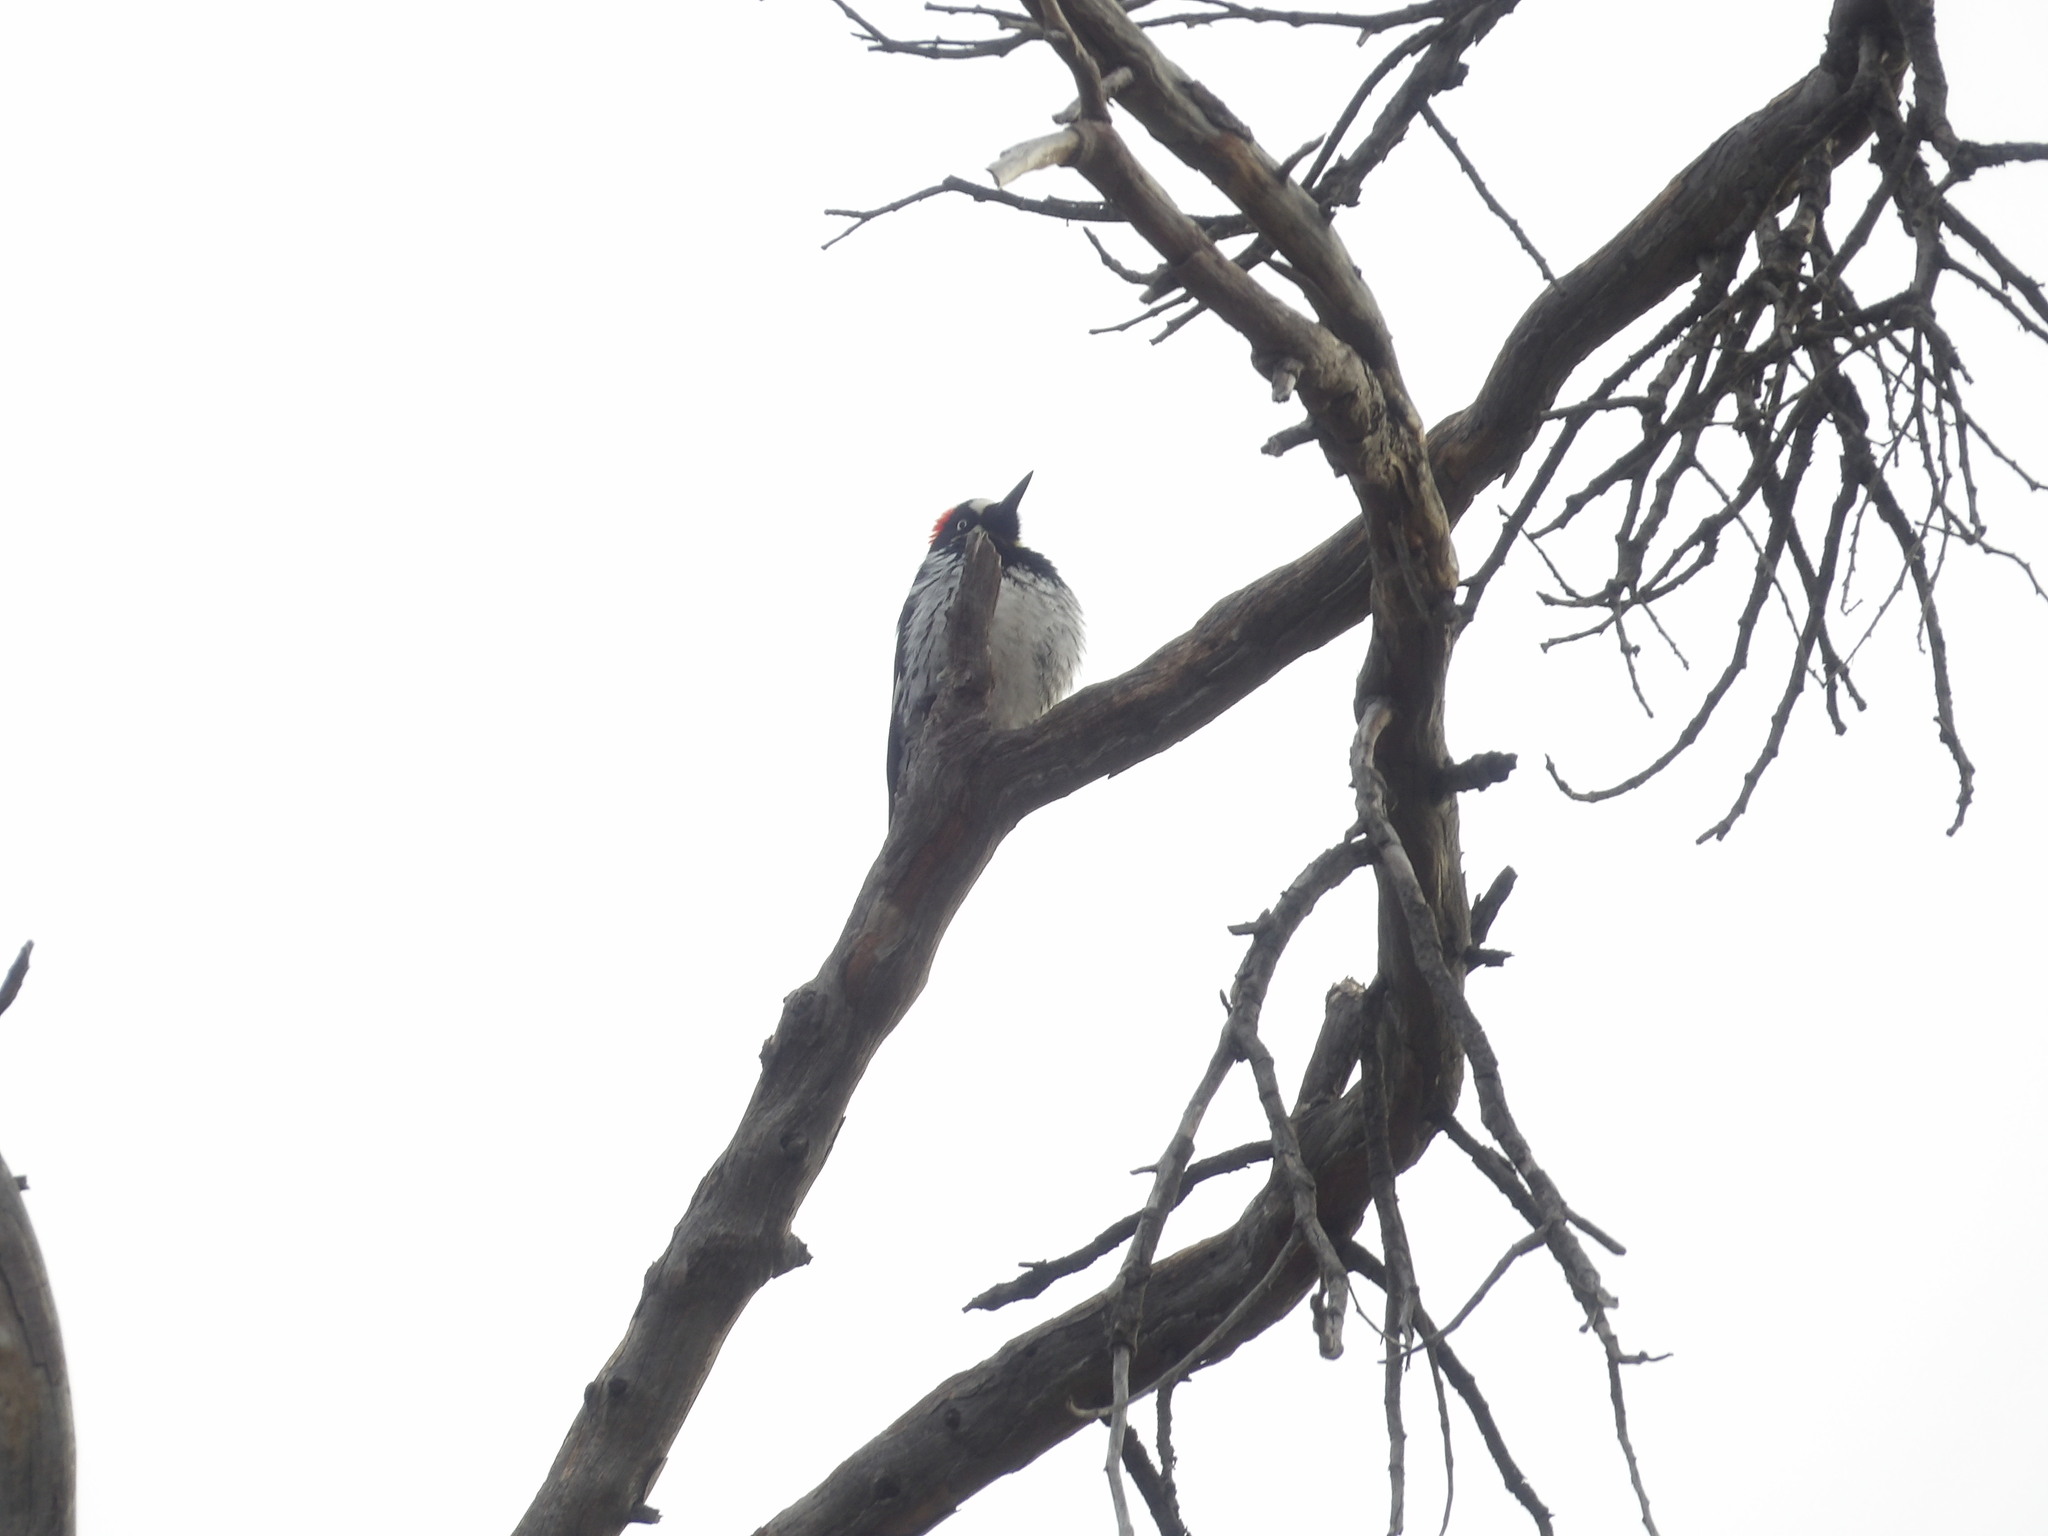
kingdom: Animalia
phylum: Chordata
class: Aves
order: Piciformes
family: Picidae
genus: Melanerpes
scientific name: Melanerpes formicivorus
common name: Acorn woodpecker
